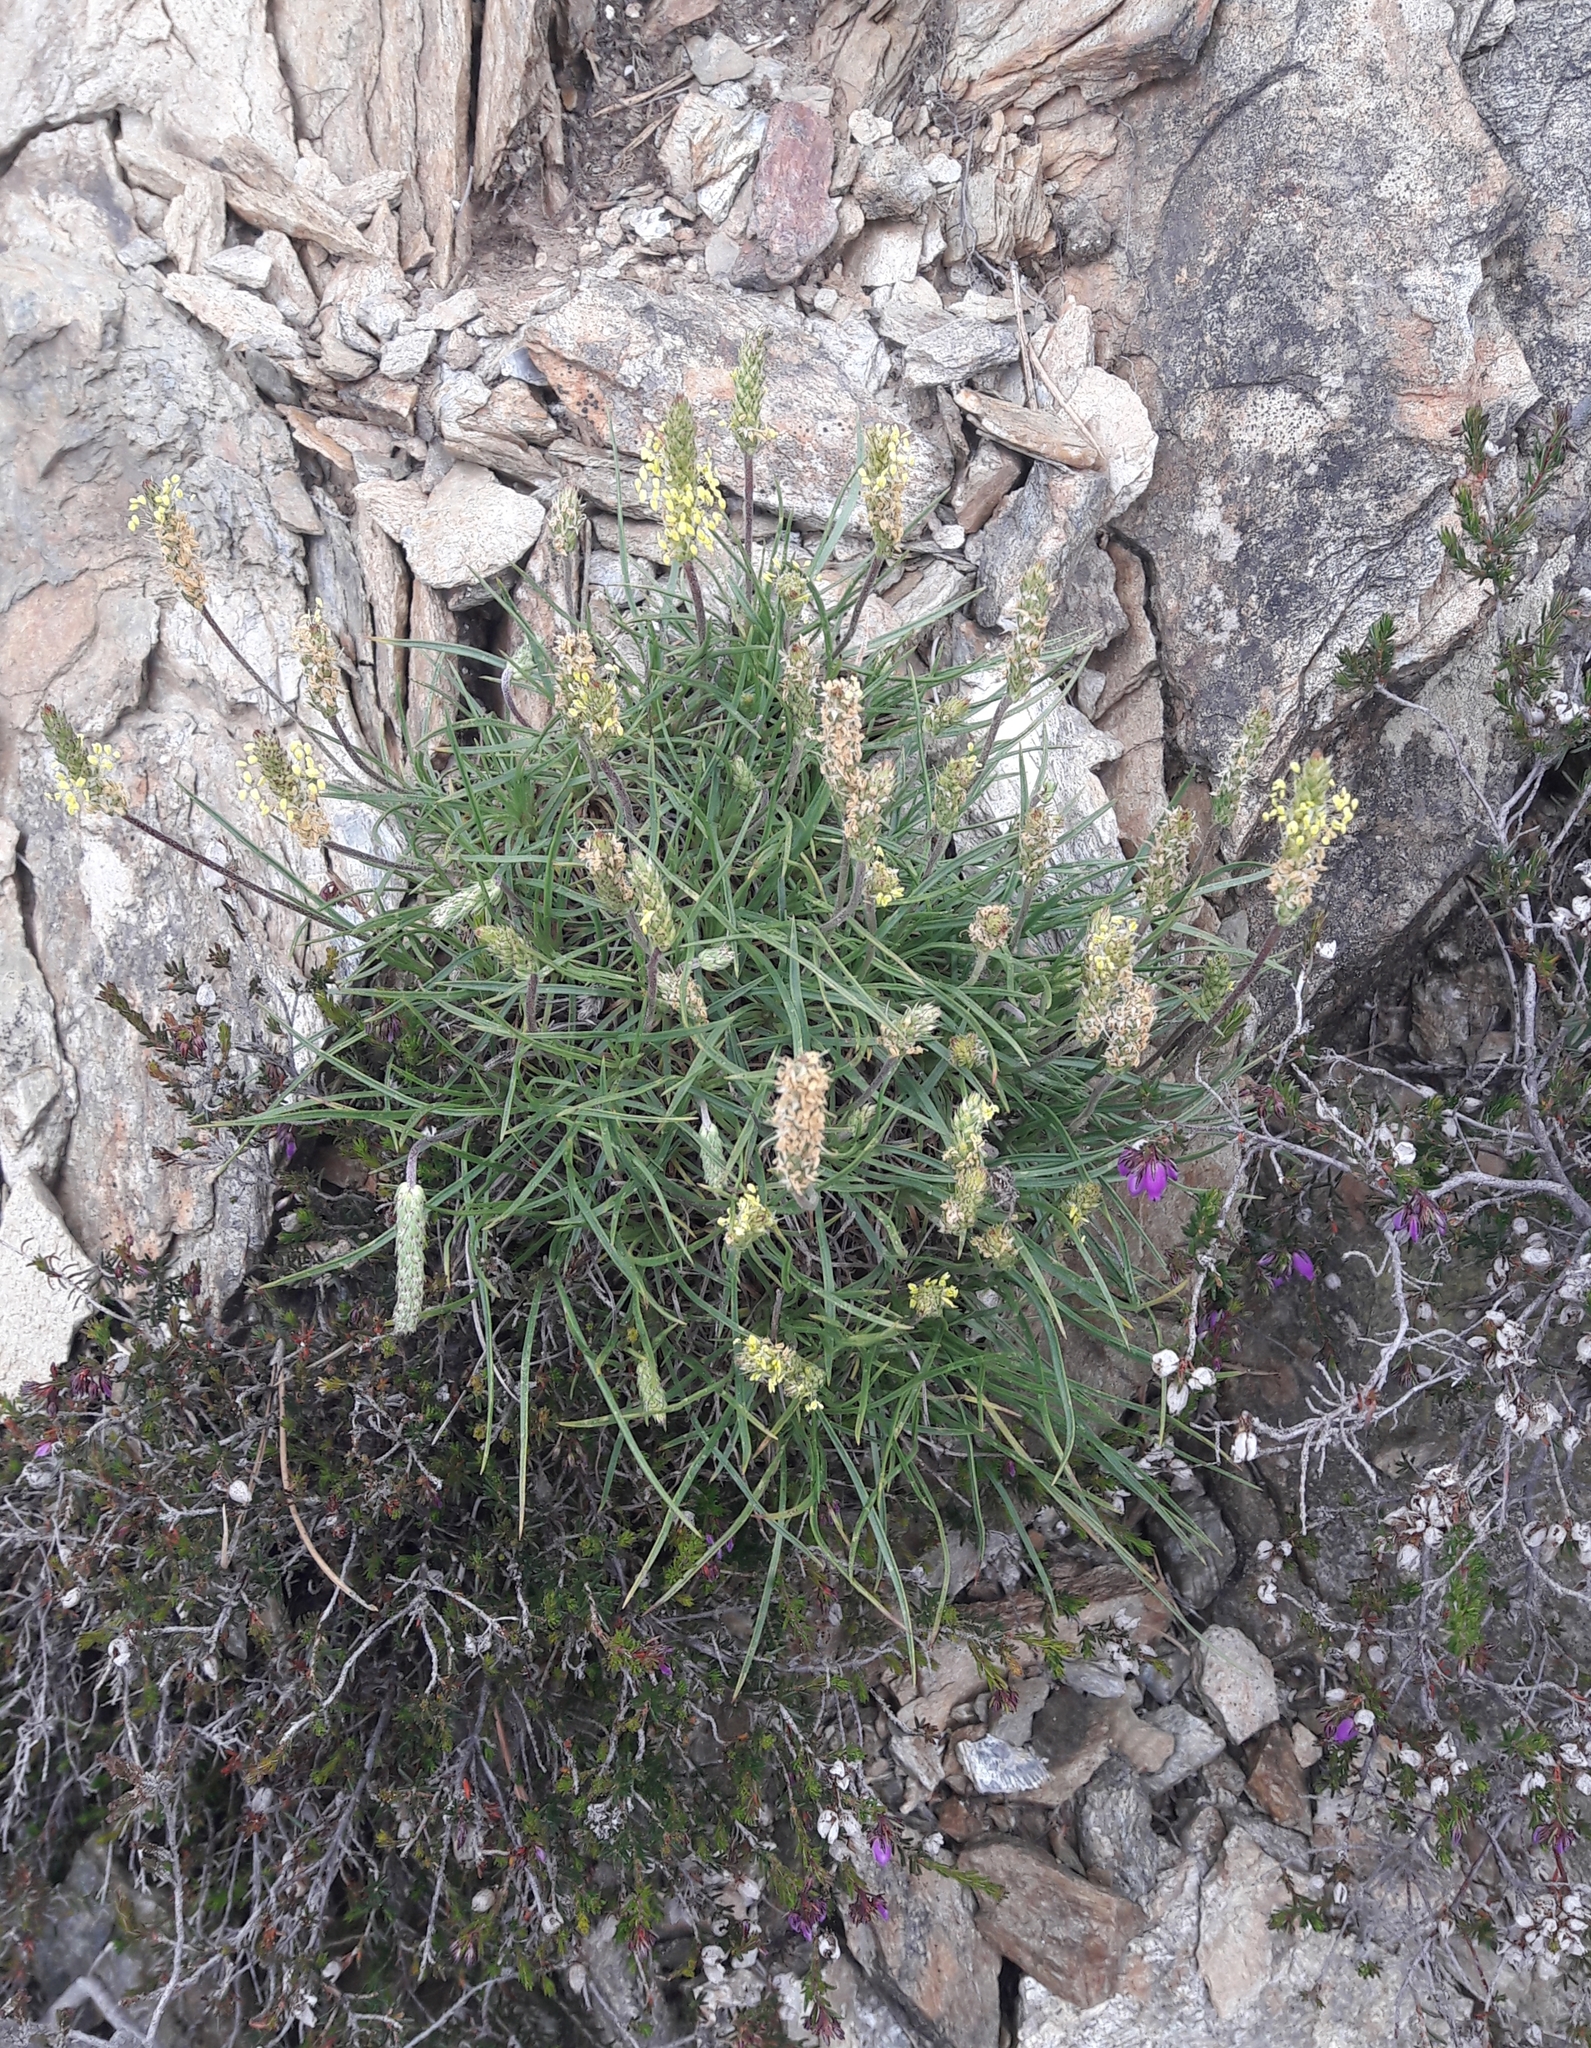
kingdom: Plantae
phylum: Tracheophyta
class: Magnoliopsida
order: Lamiales
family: Plantaginaceae
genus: Plantago
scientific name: Plantago maritima
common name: Sea plantain
